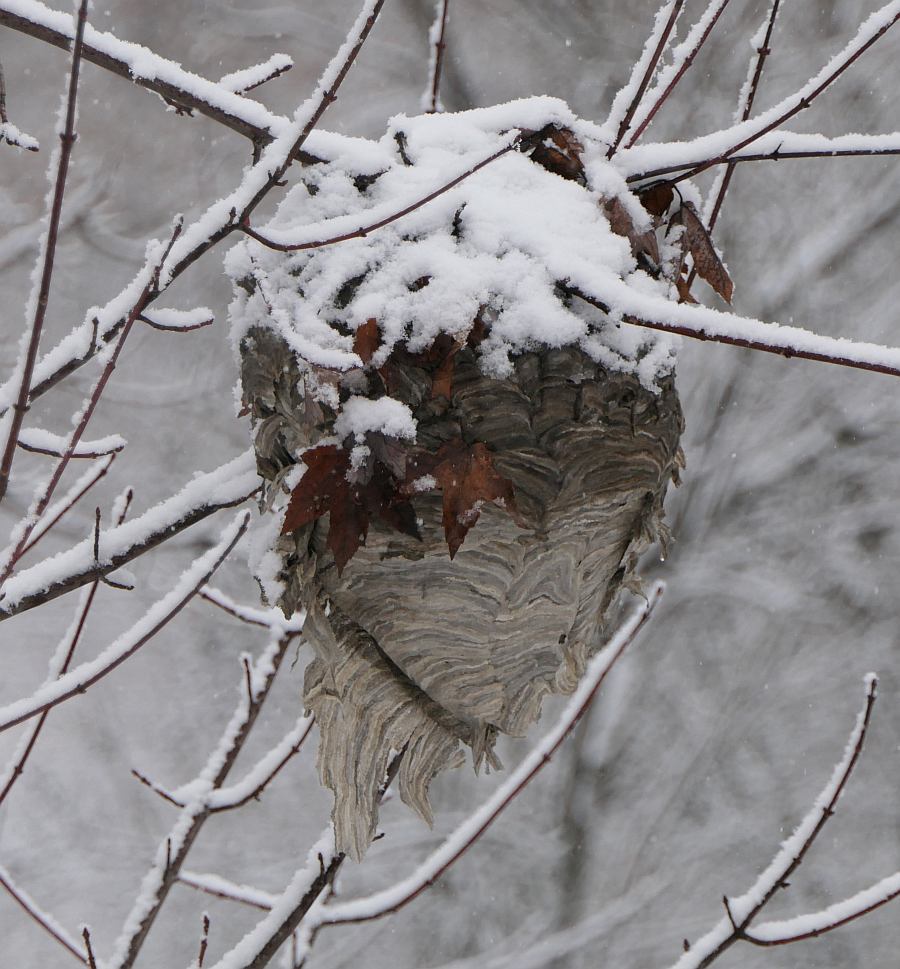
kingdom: Animalia
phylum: Arthropoda
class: Insecta
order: Hymenoptera
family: Vespidae
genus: Dolichovespula
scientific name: Dolichovespula maculata
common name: Bald-faced hornet
